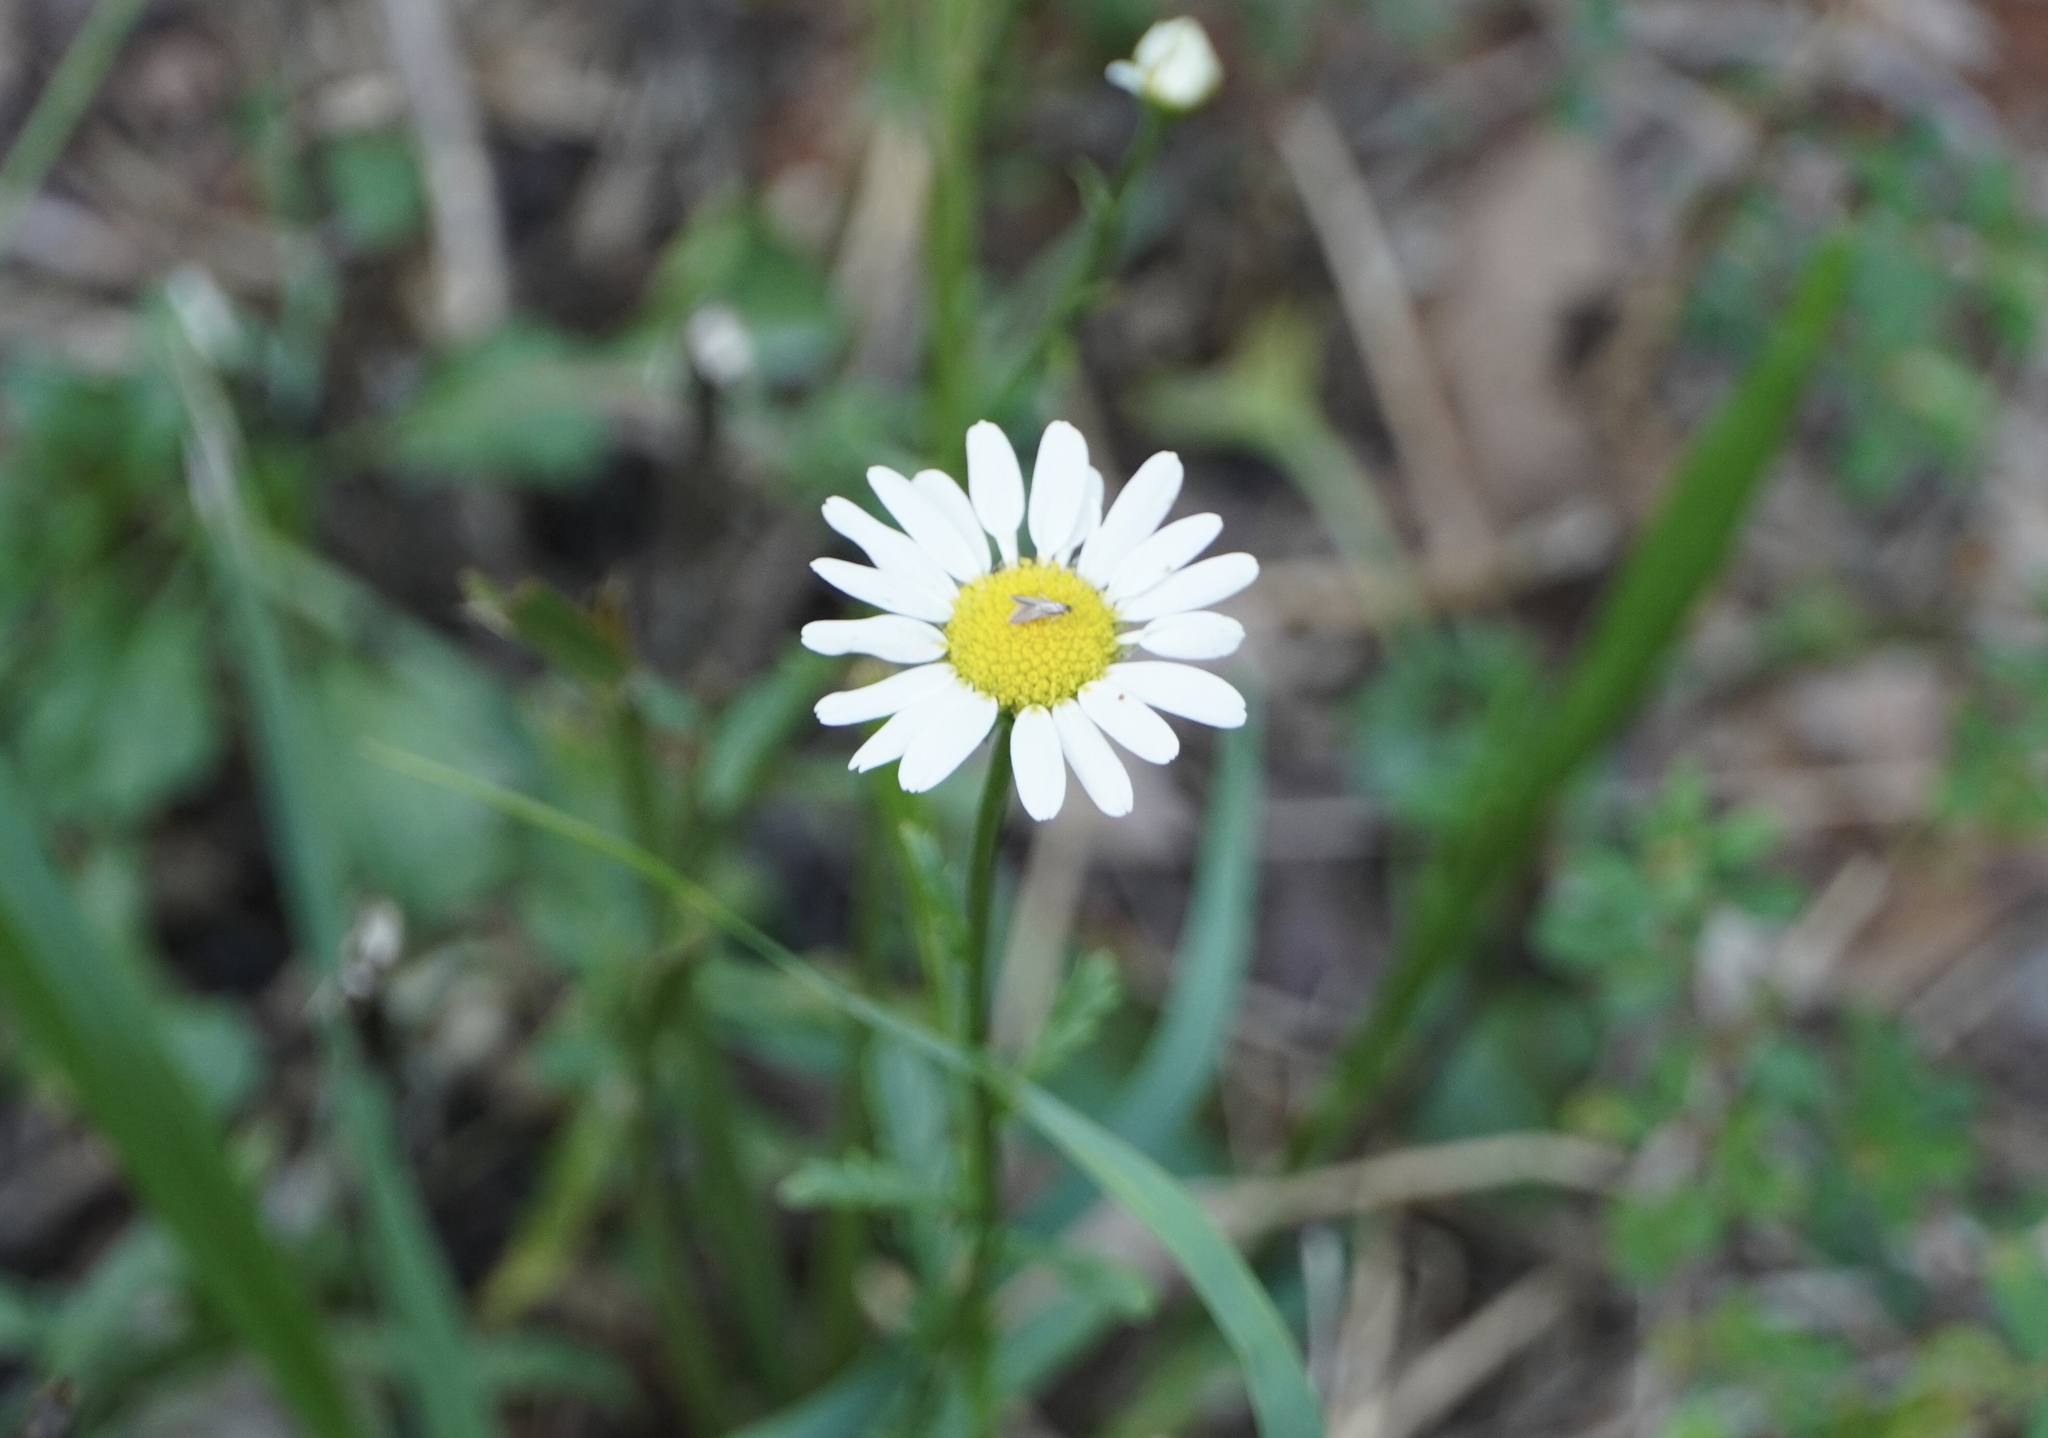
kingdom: Plantae
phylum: Tracheophyta
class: Magnoliopsida
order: Asterales
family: Asteraceae
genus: Leucanthemum
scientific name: Leucanthemum vulgare
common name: Oxeye daisy
